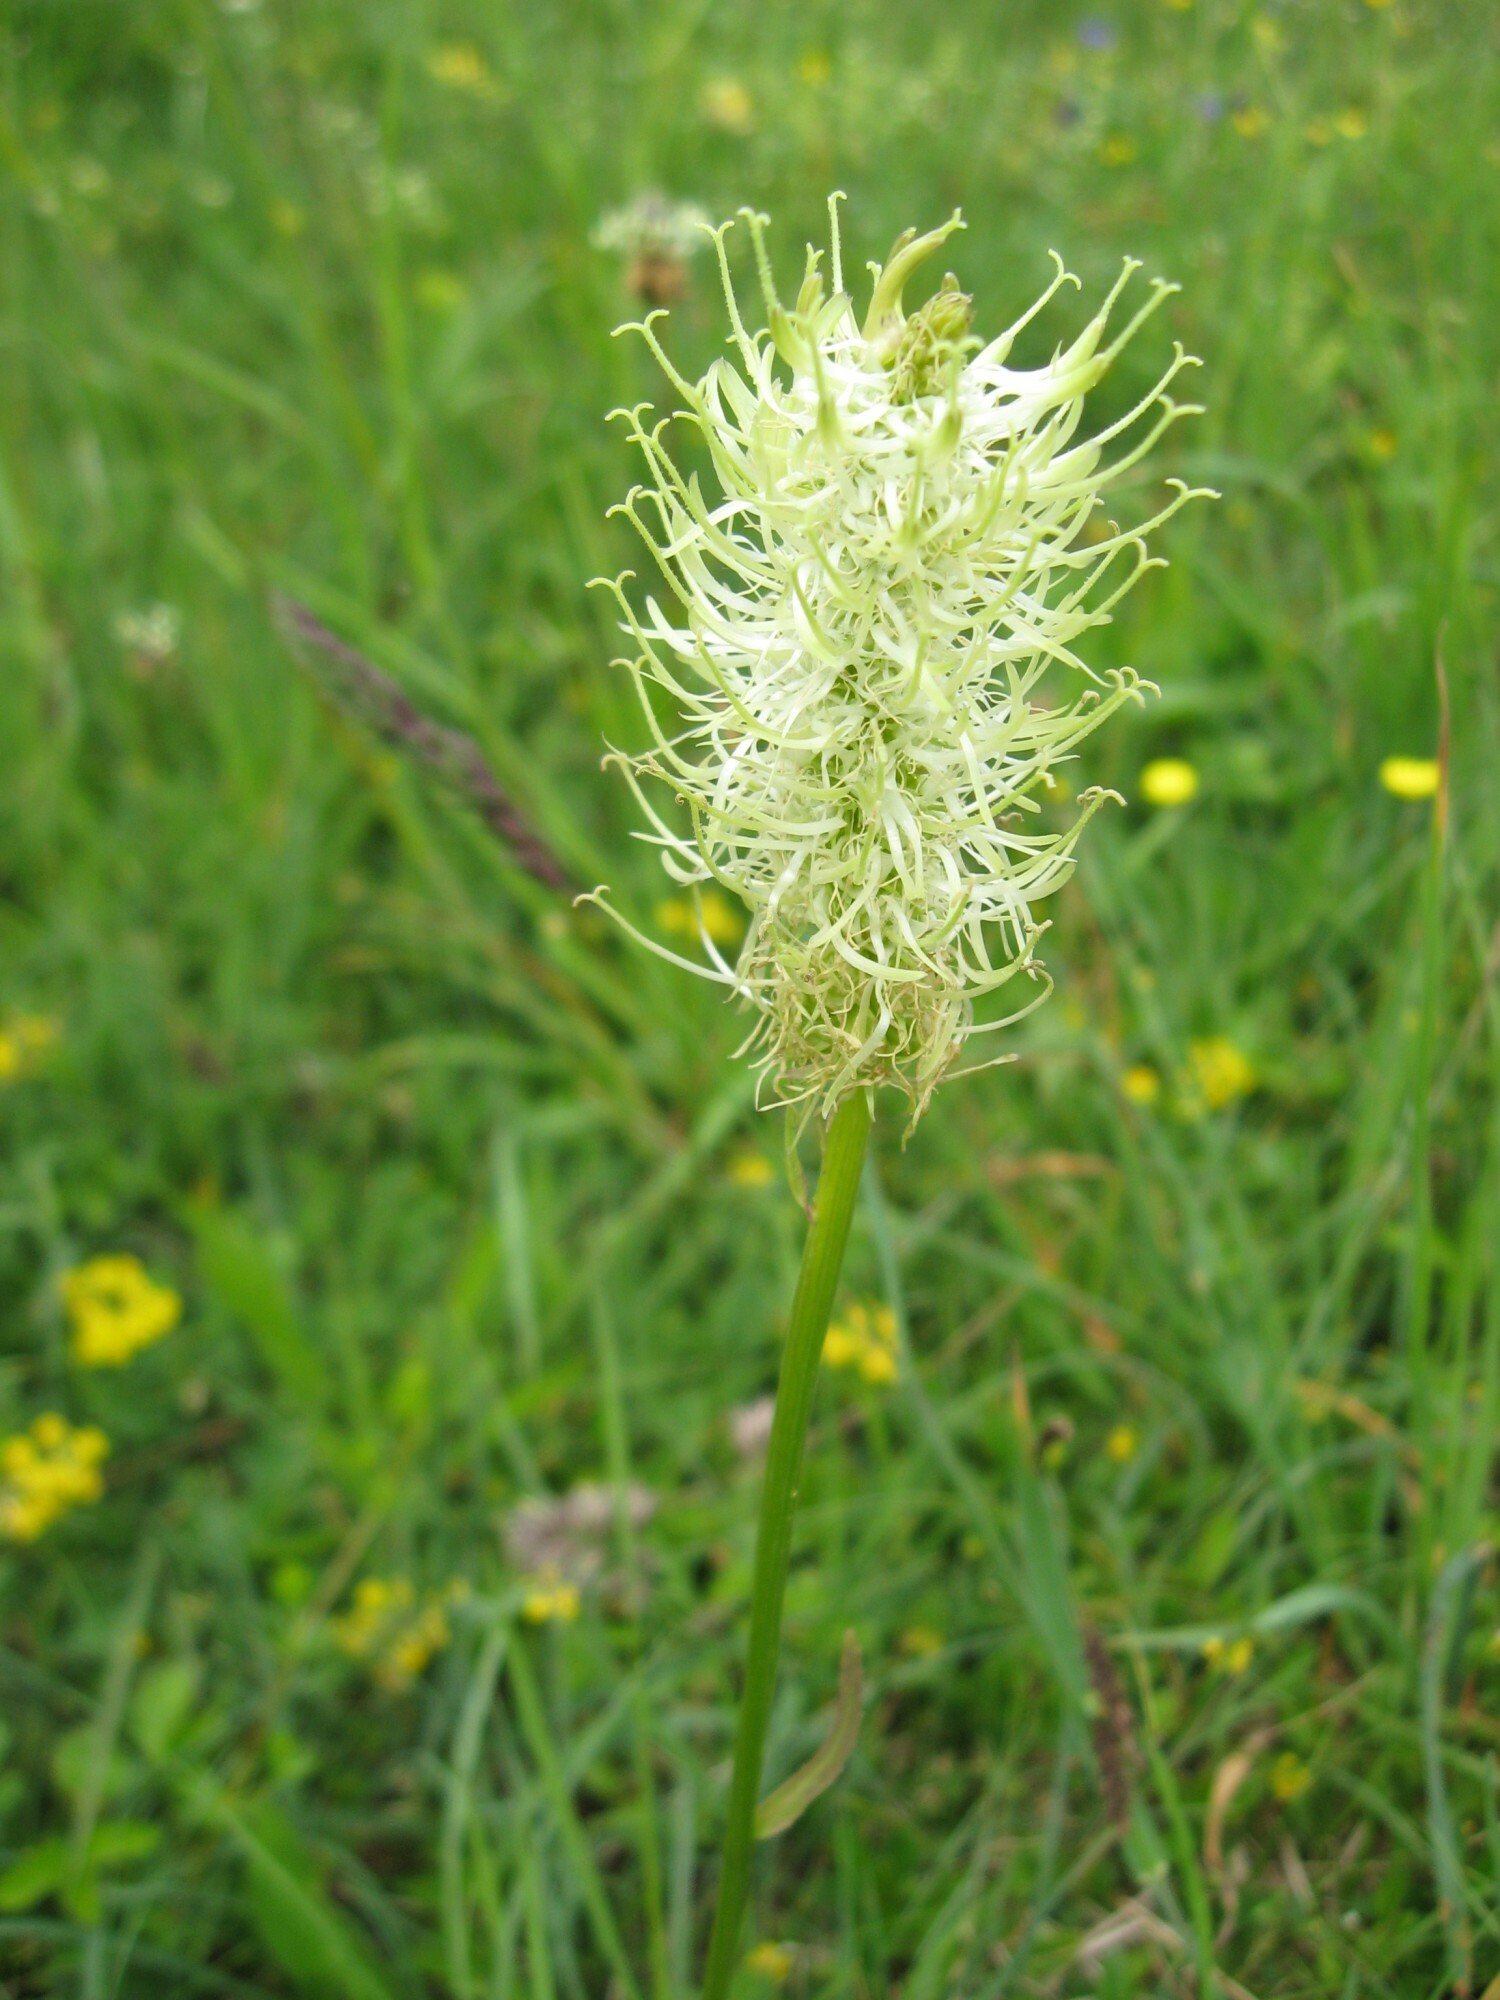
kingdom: Plantae
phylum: Tracheophyta
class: Magnoliopsida
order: Asterales
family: Campanulaceae
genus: Phyteuma
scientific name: Phyteuma spicatum
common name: Spiked rampion
